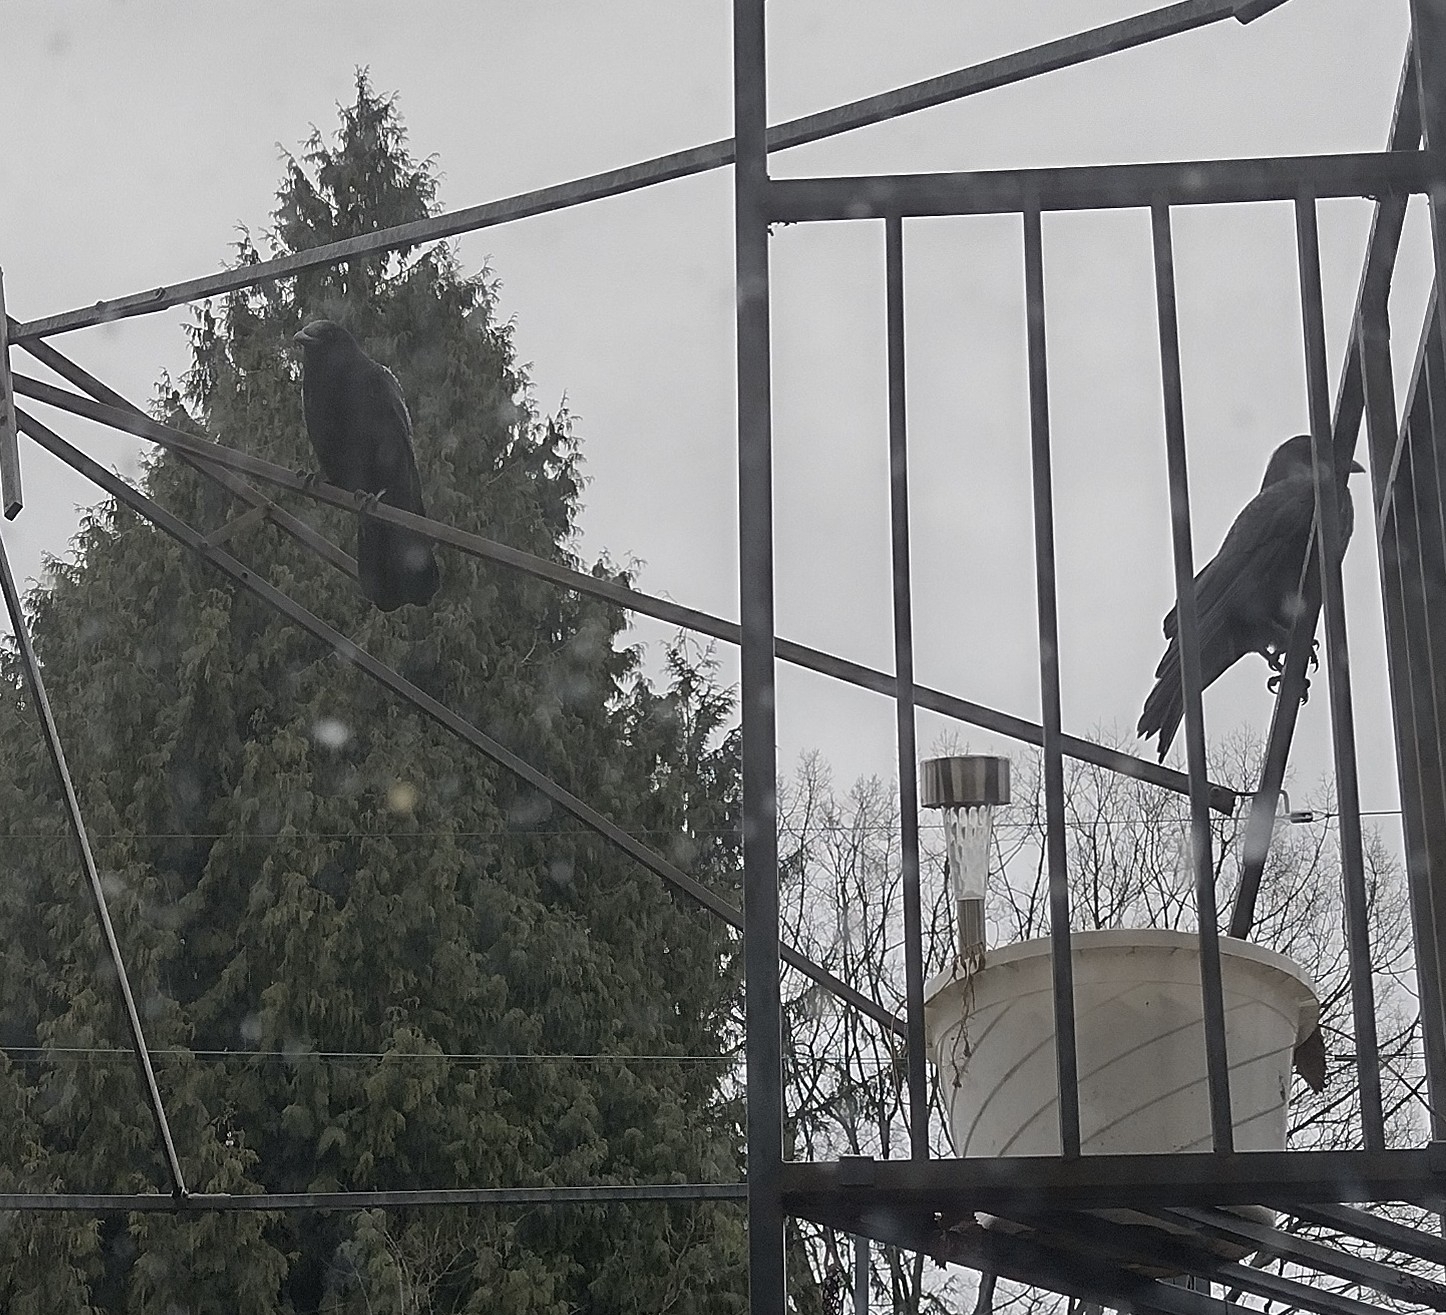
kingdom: Animalia
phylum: Chordata
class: Aves
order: Passeriformes
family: Corvidae
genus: Corvus
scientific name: Corvus brachyrhynchos
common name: American crow
